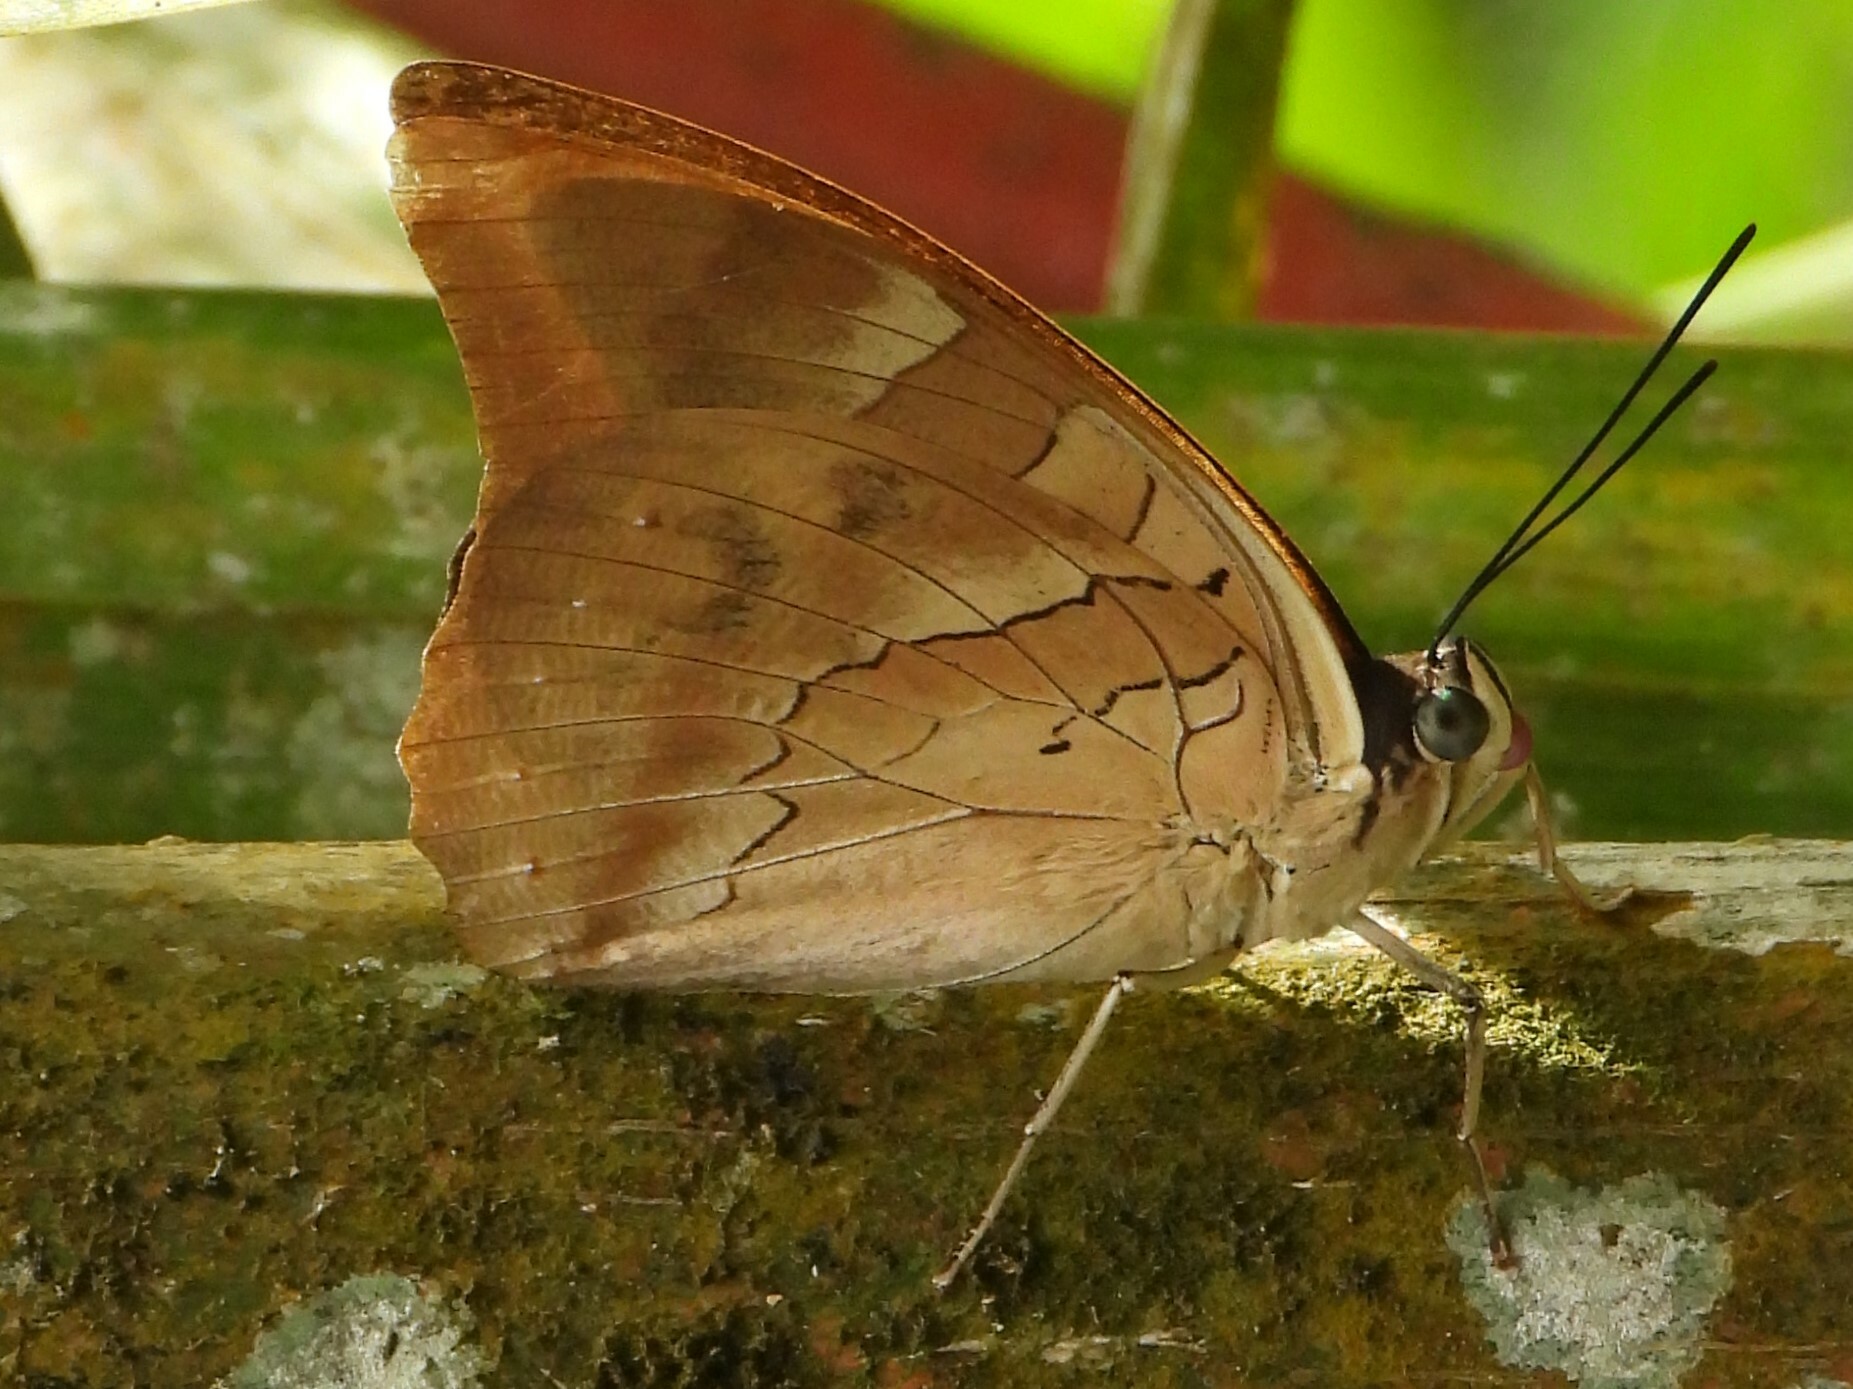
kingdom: Animalia
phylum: Arthropoda
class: Insecta
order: Lepidoptera
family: Nymphalidae
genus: Prepona
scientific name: Prepona demophon
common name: One-spotted prepona
